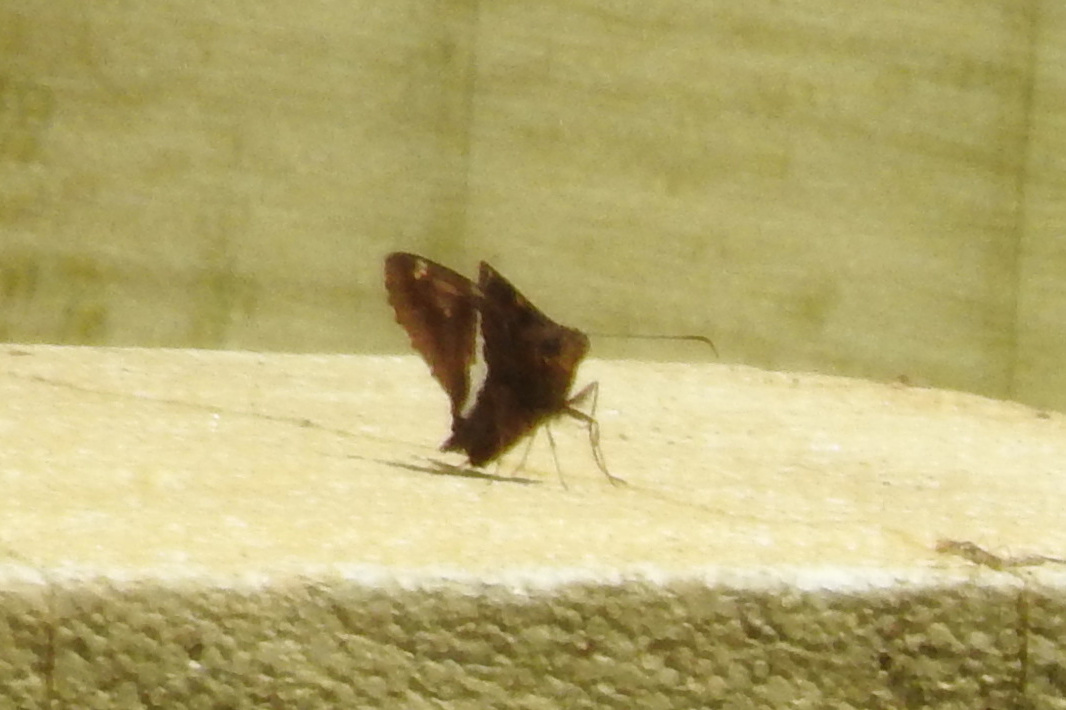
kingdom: Animalia
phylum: Arthropoda
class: Insecta
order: Lepidoptera
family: Hesperiidae
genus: Epargyreus
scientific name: Epargyreus clarus
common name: Silver-spotted skipper
